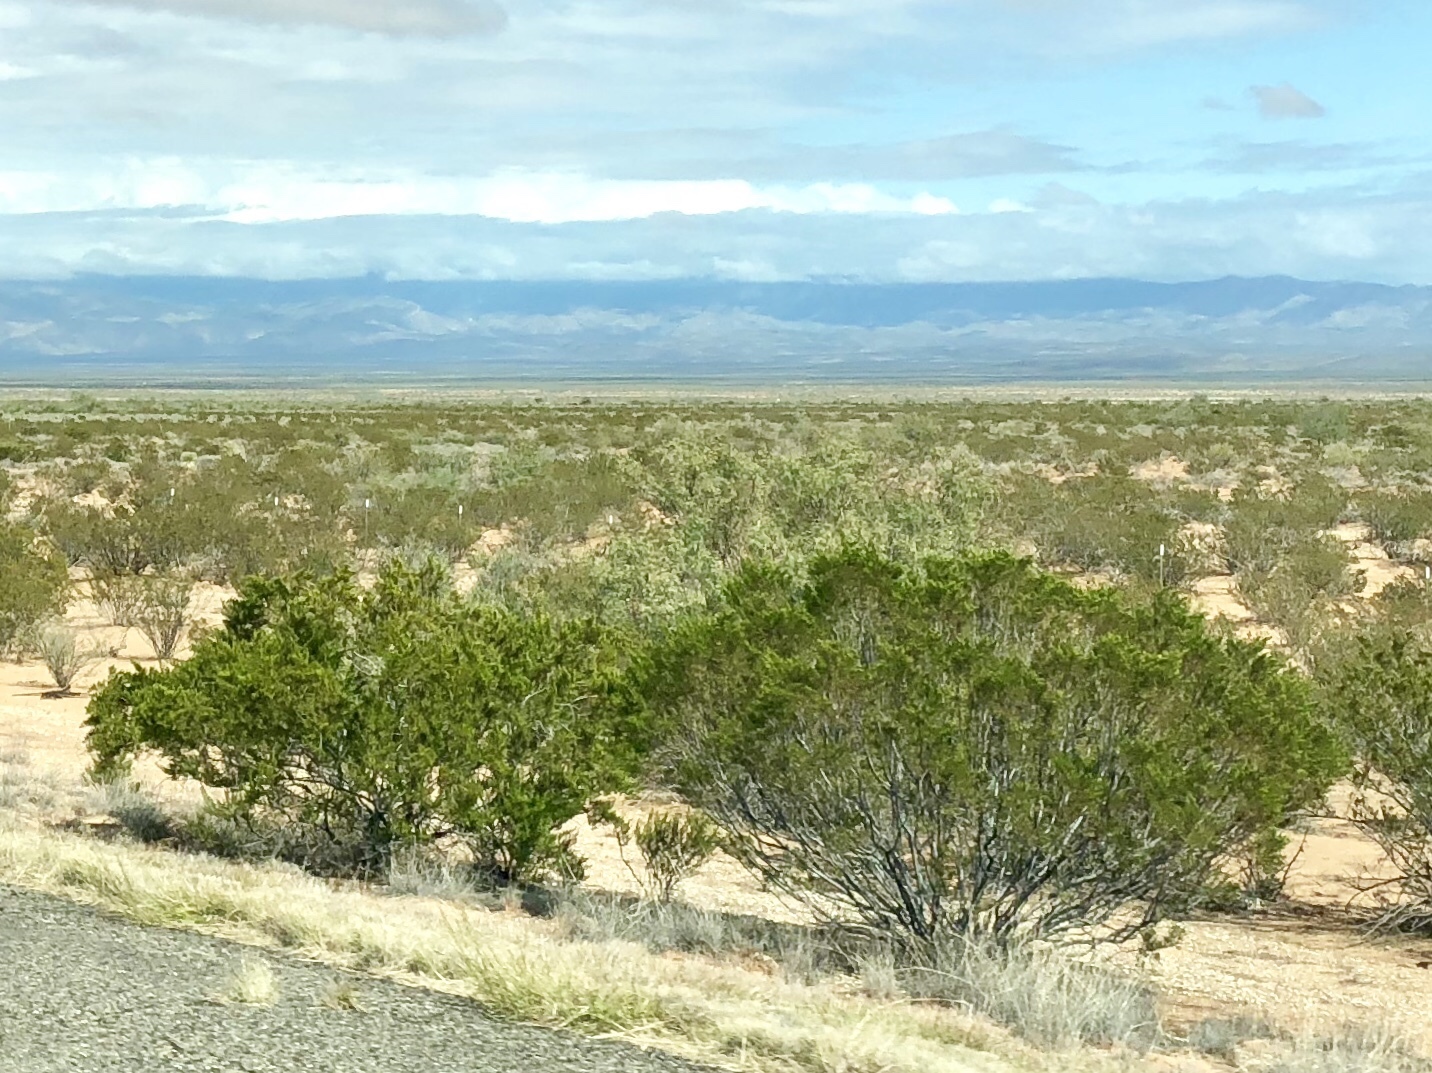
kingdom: Plantae
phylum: Tracheophyta
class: Magnoliopsida
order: Zygophyllales
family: Zygophyllaceae
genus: Larrea
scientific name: Larrea tridentata
